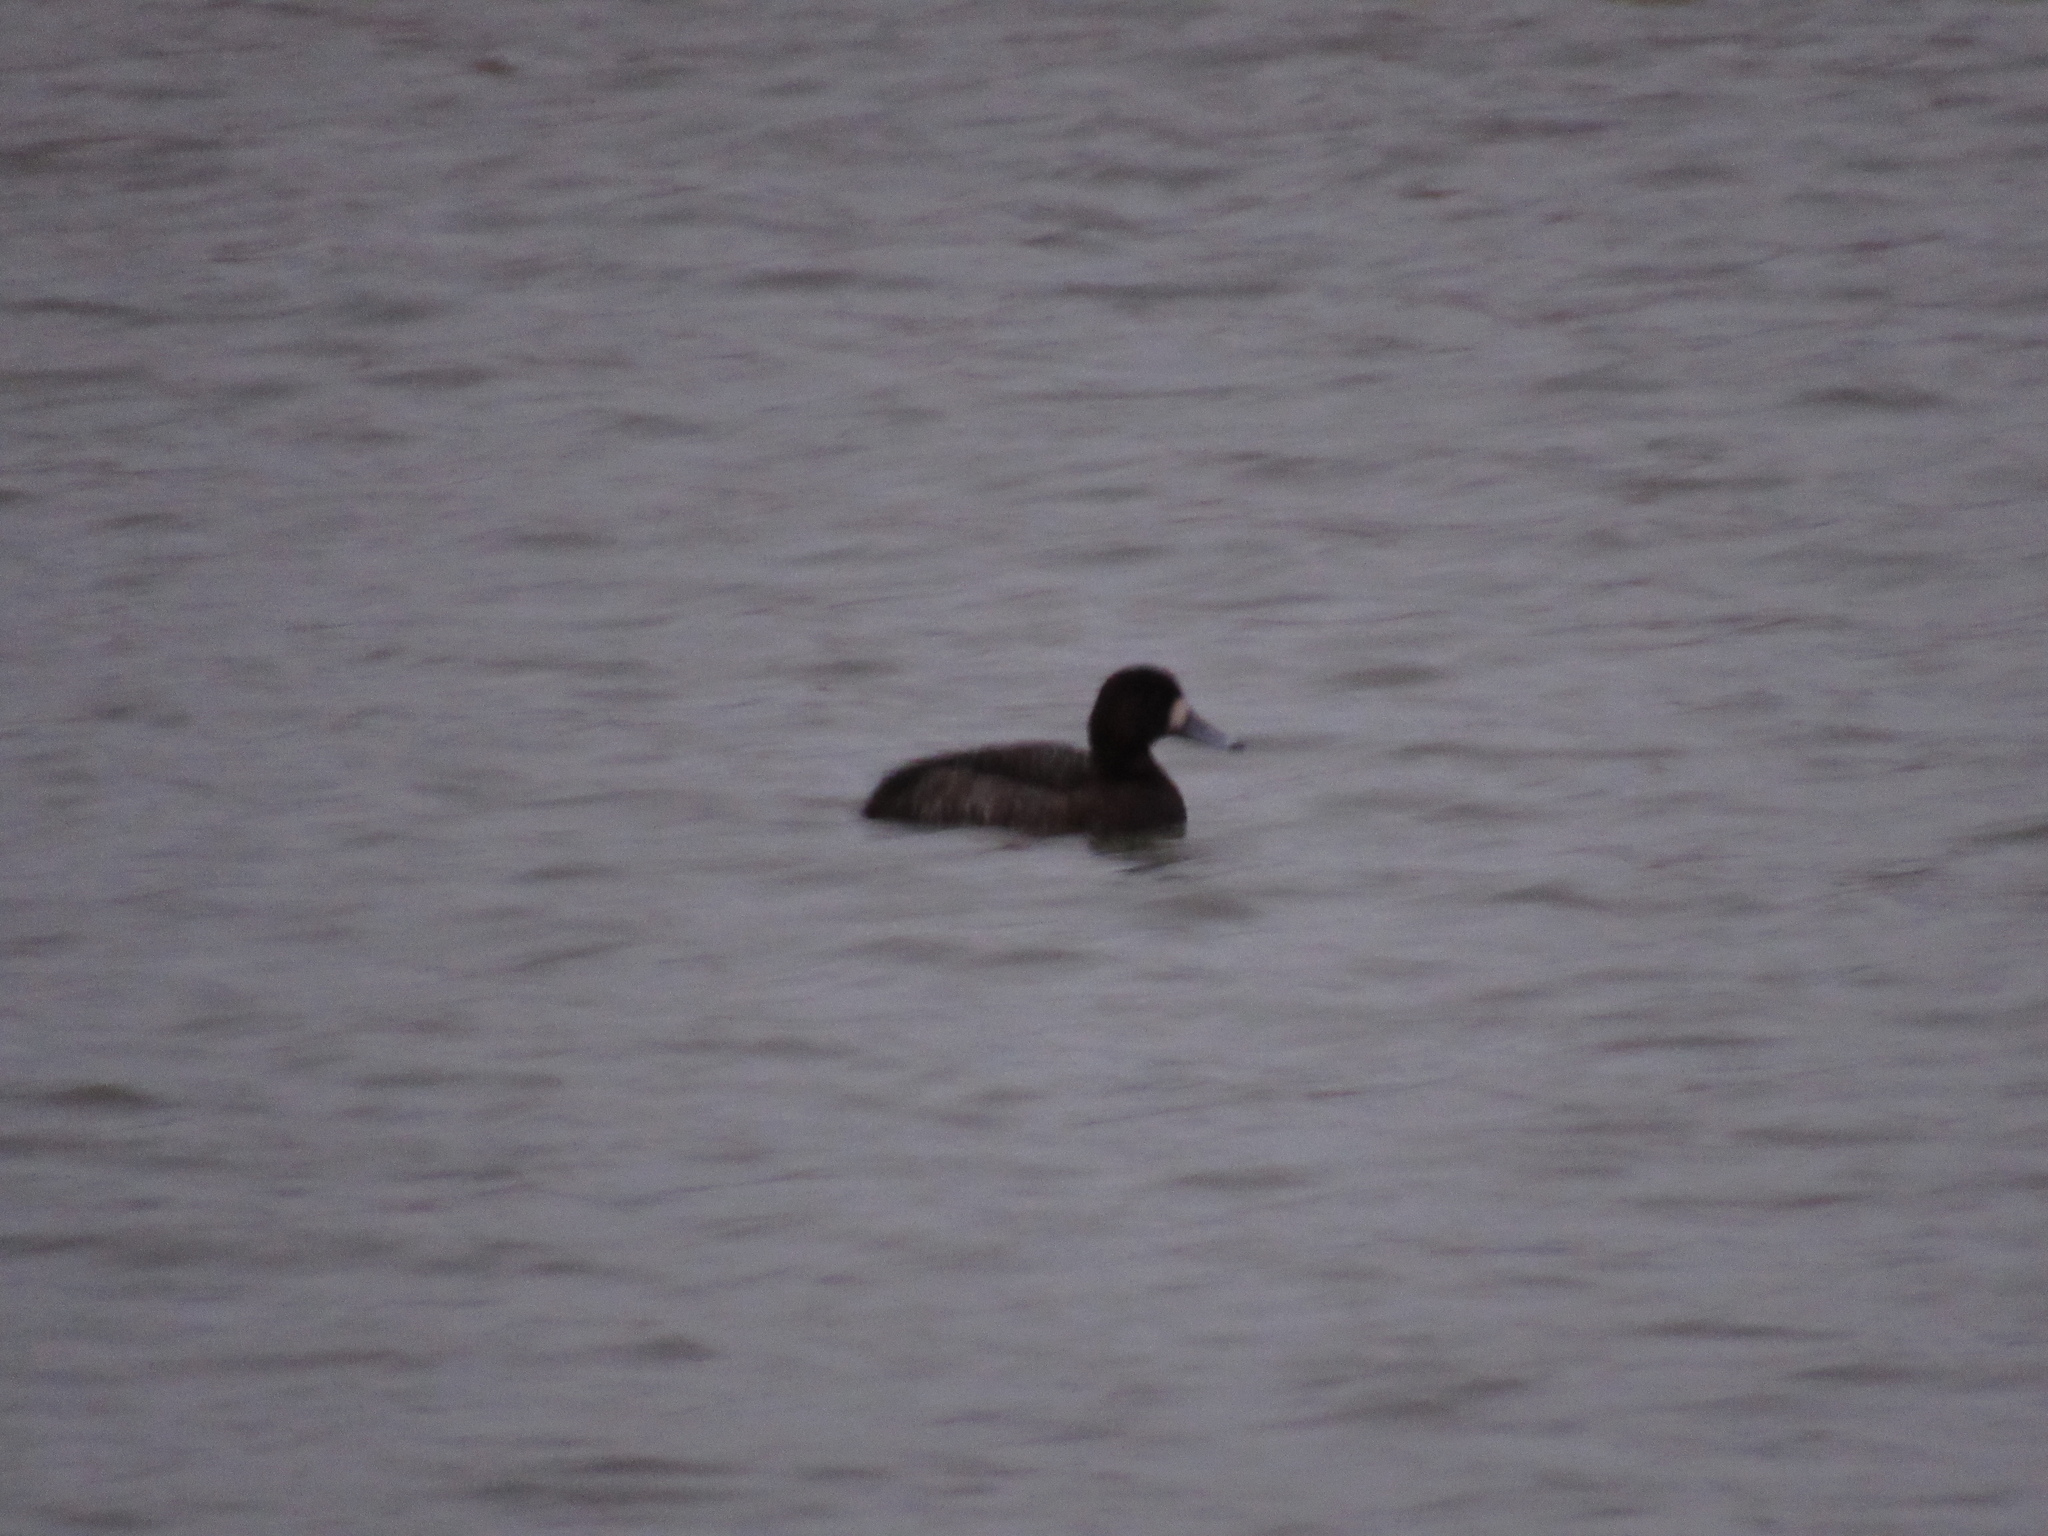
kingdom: Animalia
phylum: Chordata
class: Aves
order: Anseriformes
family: Anatidae
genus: Aythya
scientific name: Aythya affinis
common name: Lesser scaup
